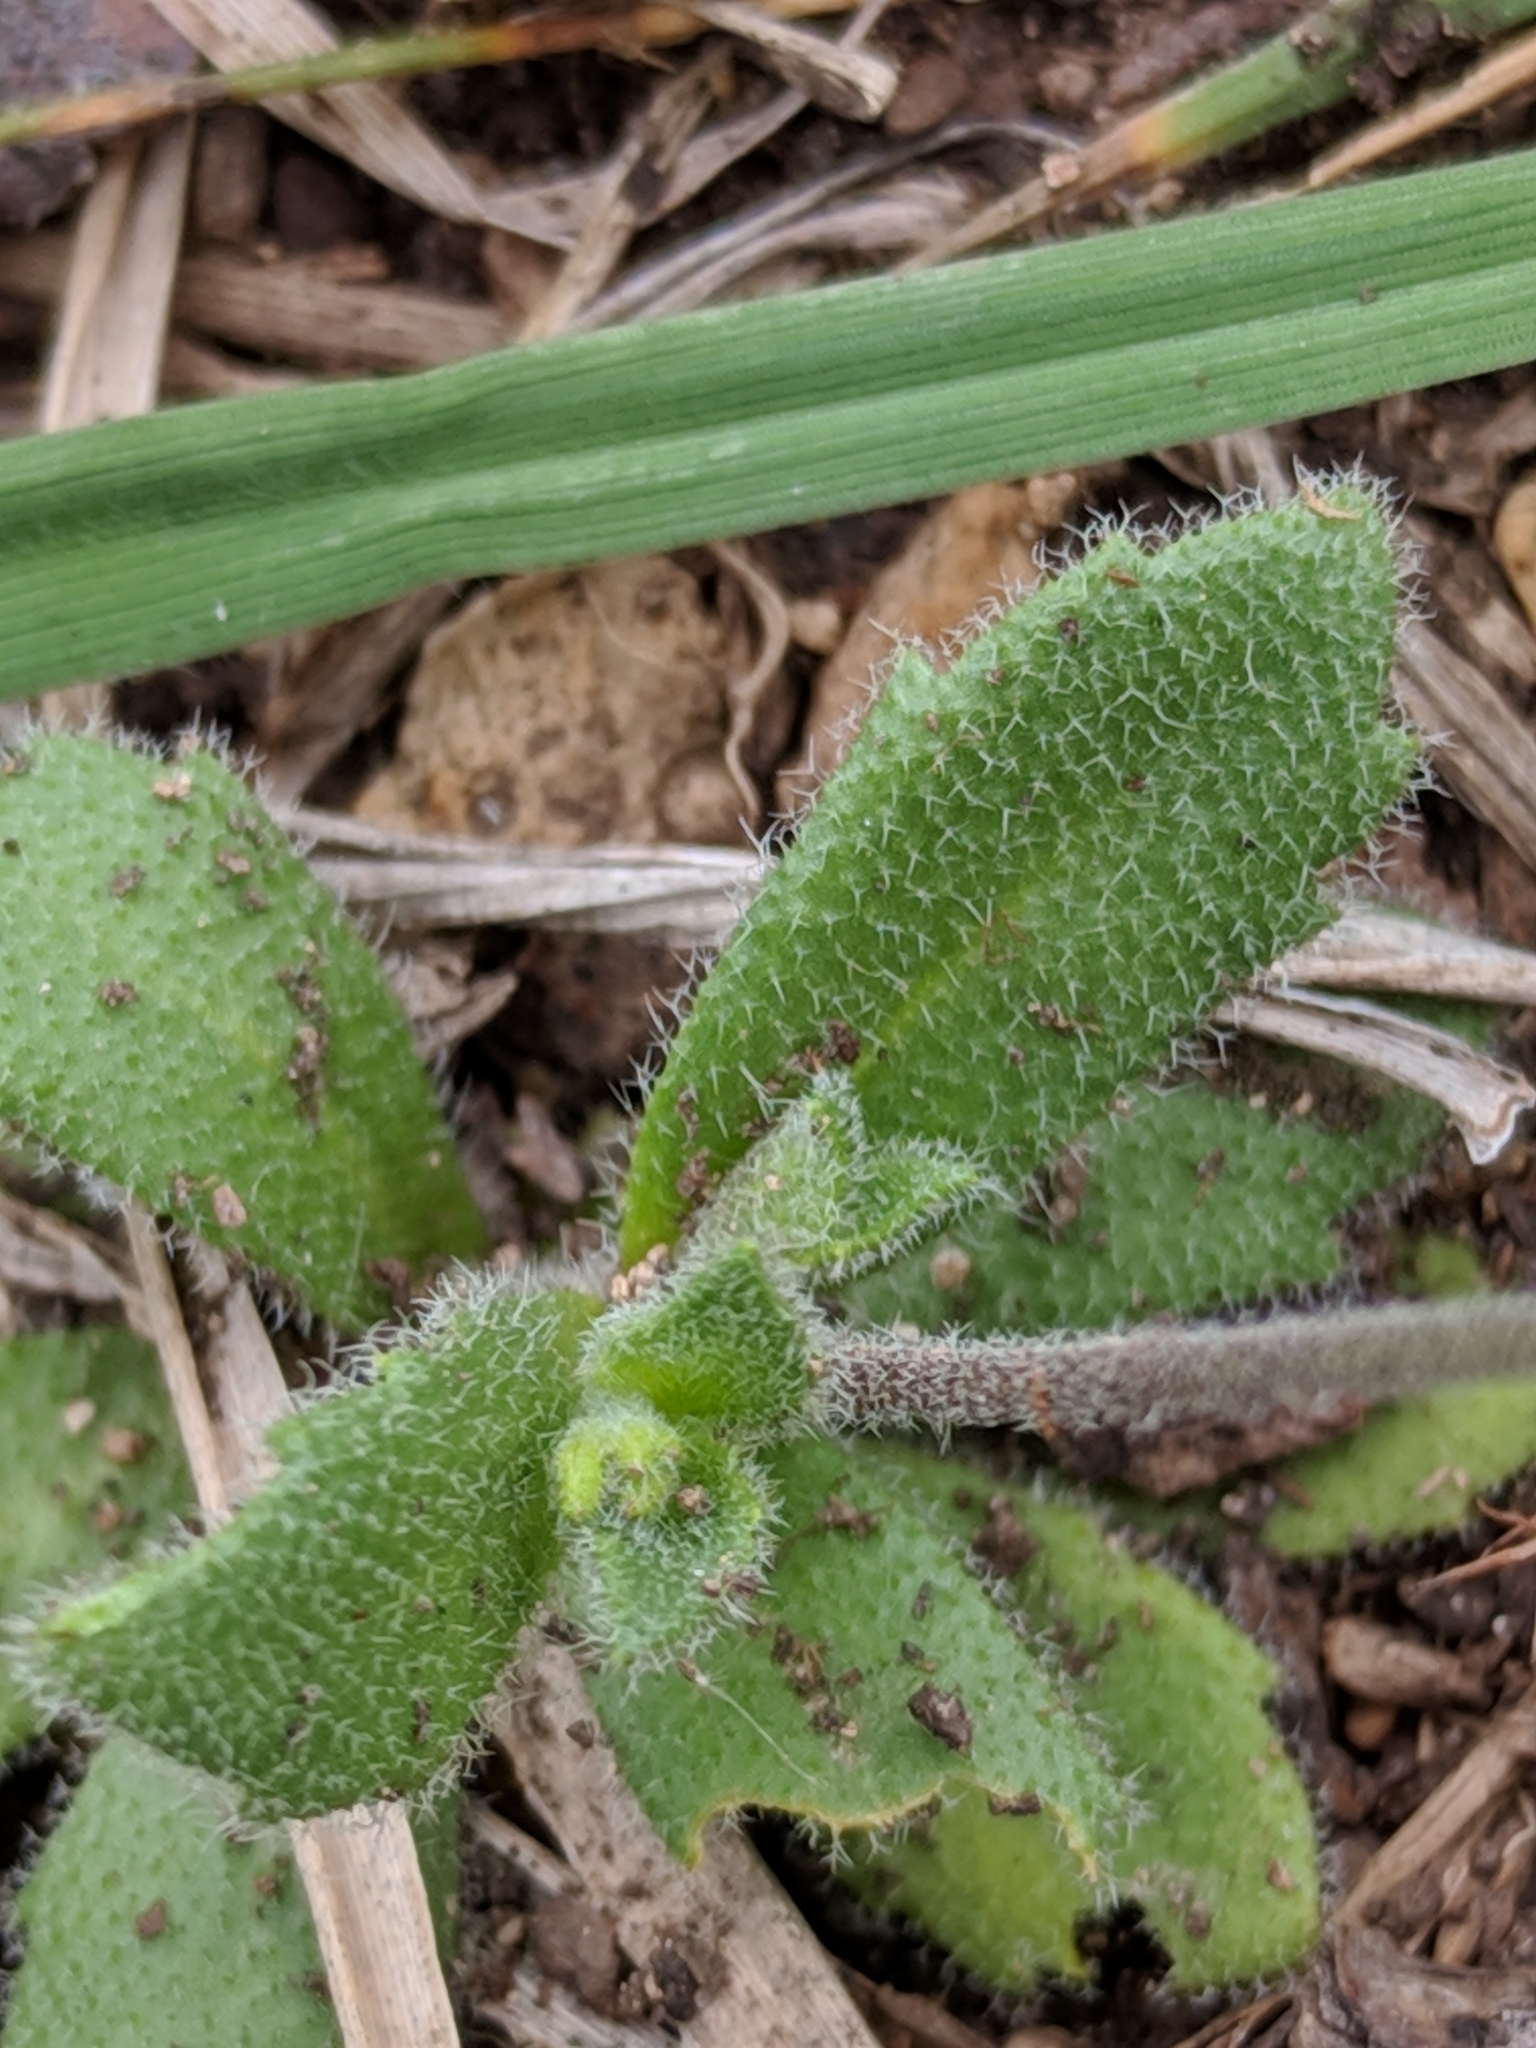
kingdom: Plantae
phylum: Tracheophyta
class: Magnoliopsida
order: Brassicales
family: Brassicaceae
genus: Tomostima
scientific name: Tomostima cuneifolia
